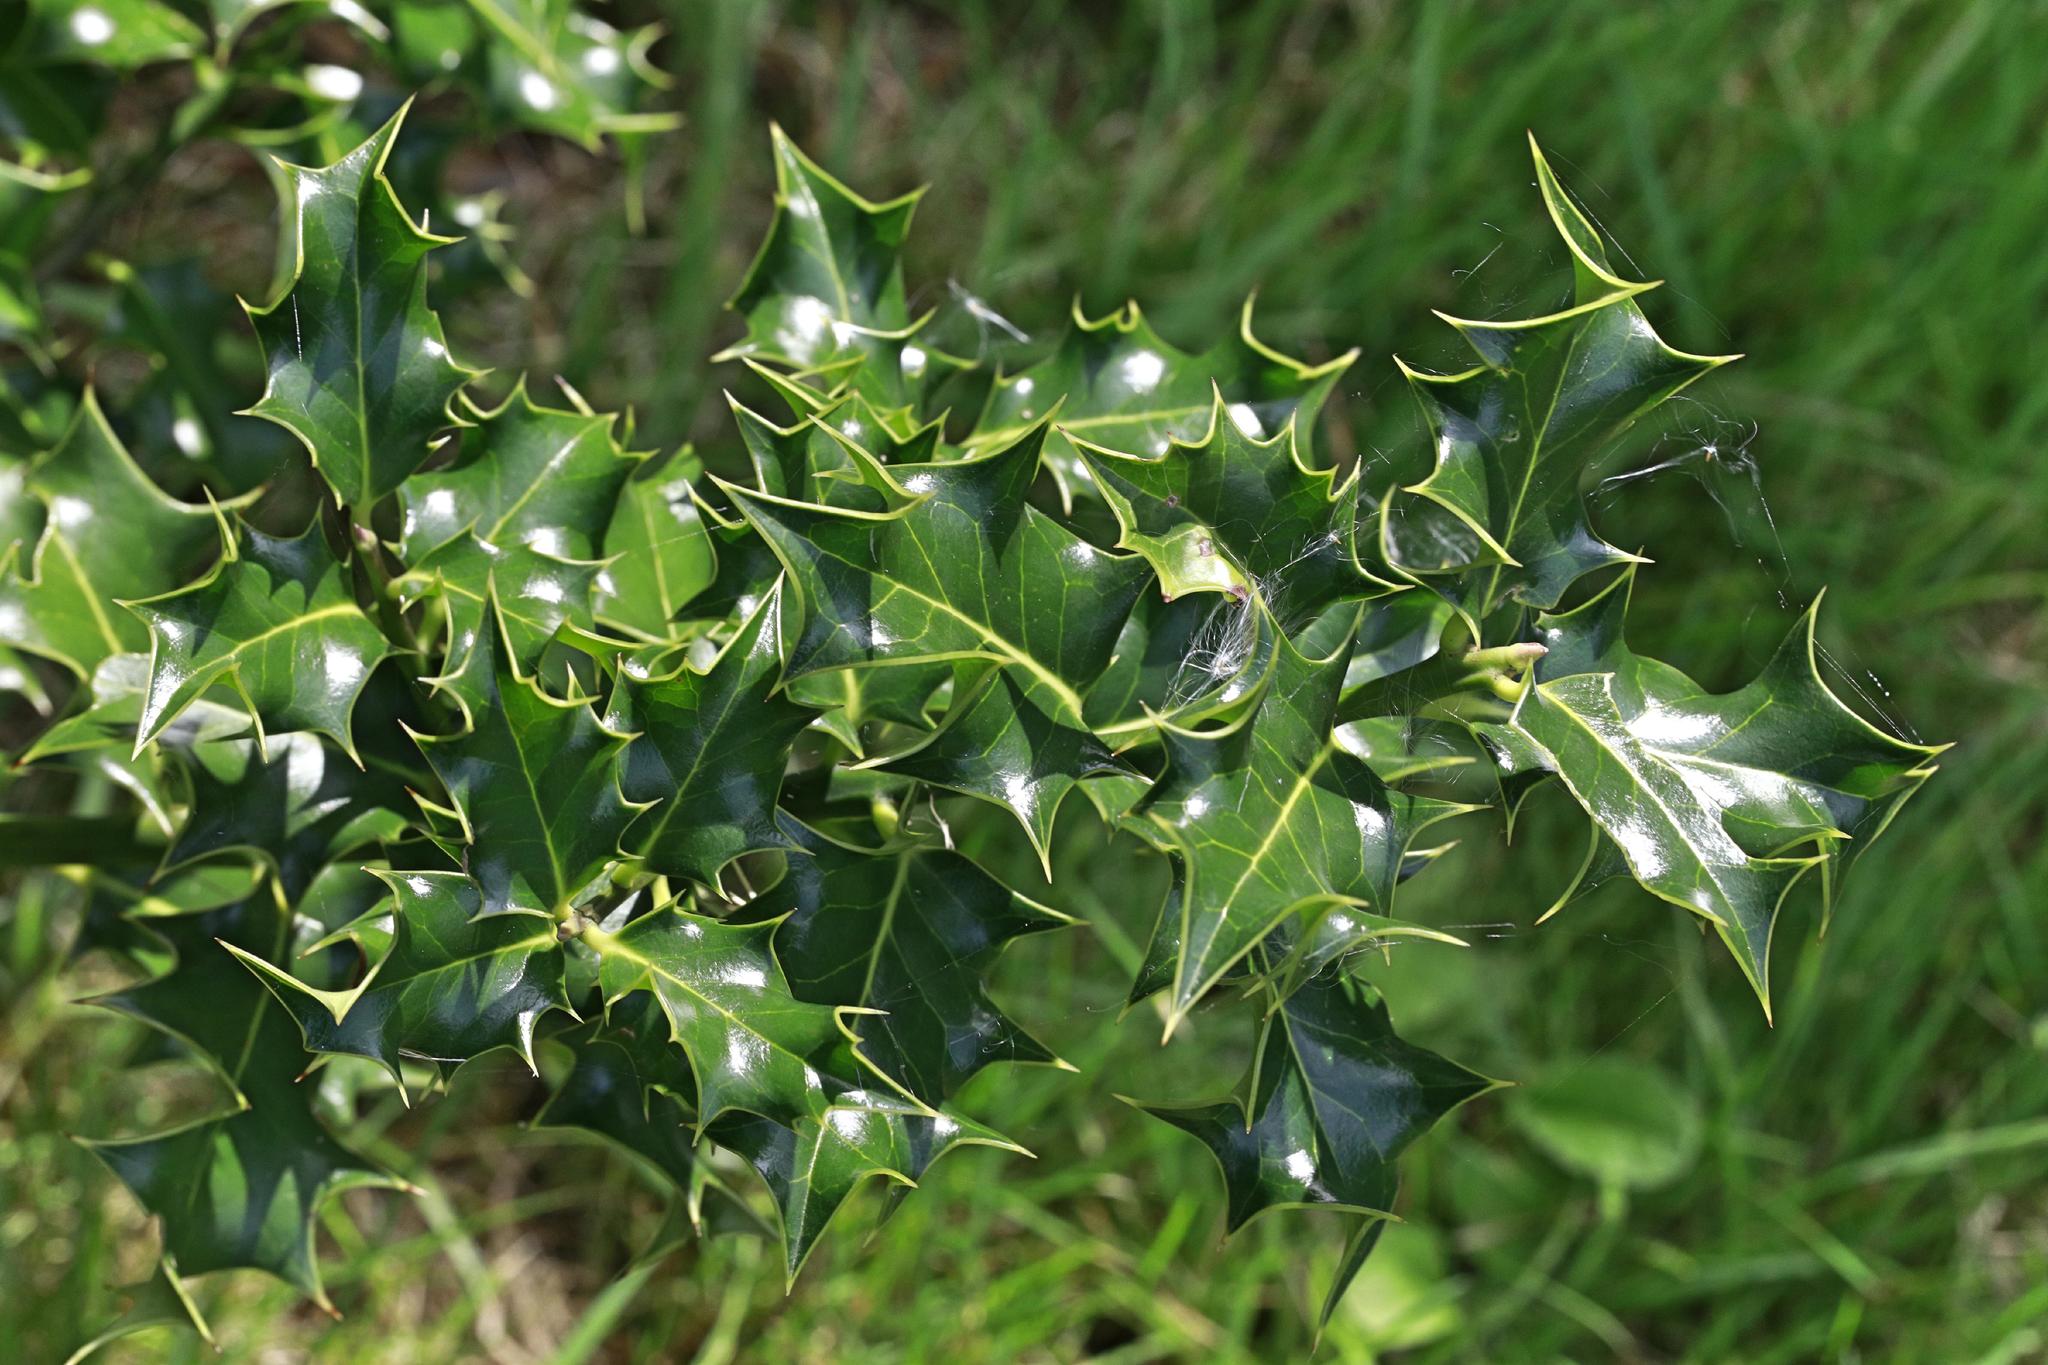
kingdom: Plantae
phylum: Tracheophyta
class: Magnoliopsida
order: Aquifoliales
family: Aquifoliaceae
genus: Ilex
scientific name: Ilex aquifolium
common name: English holly
